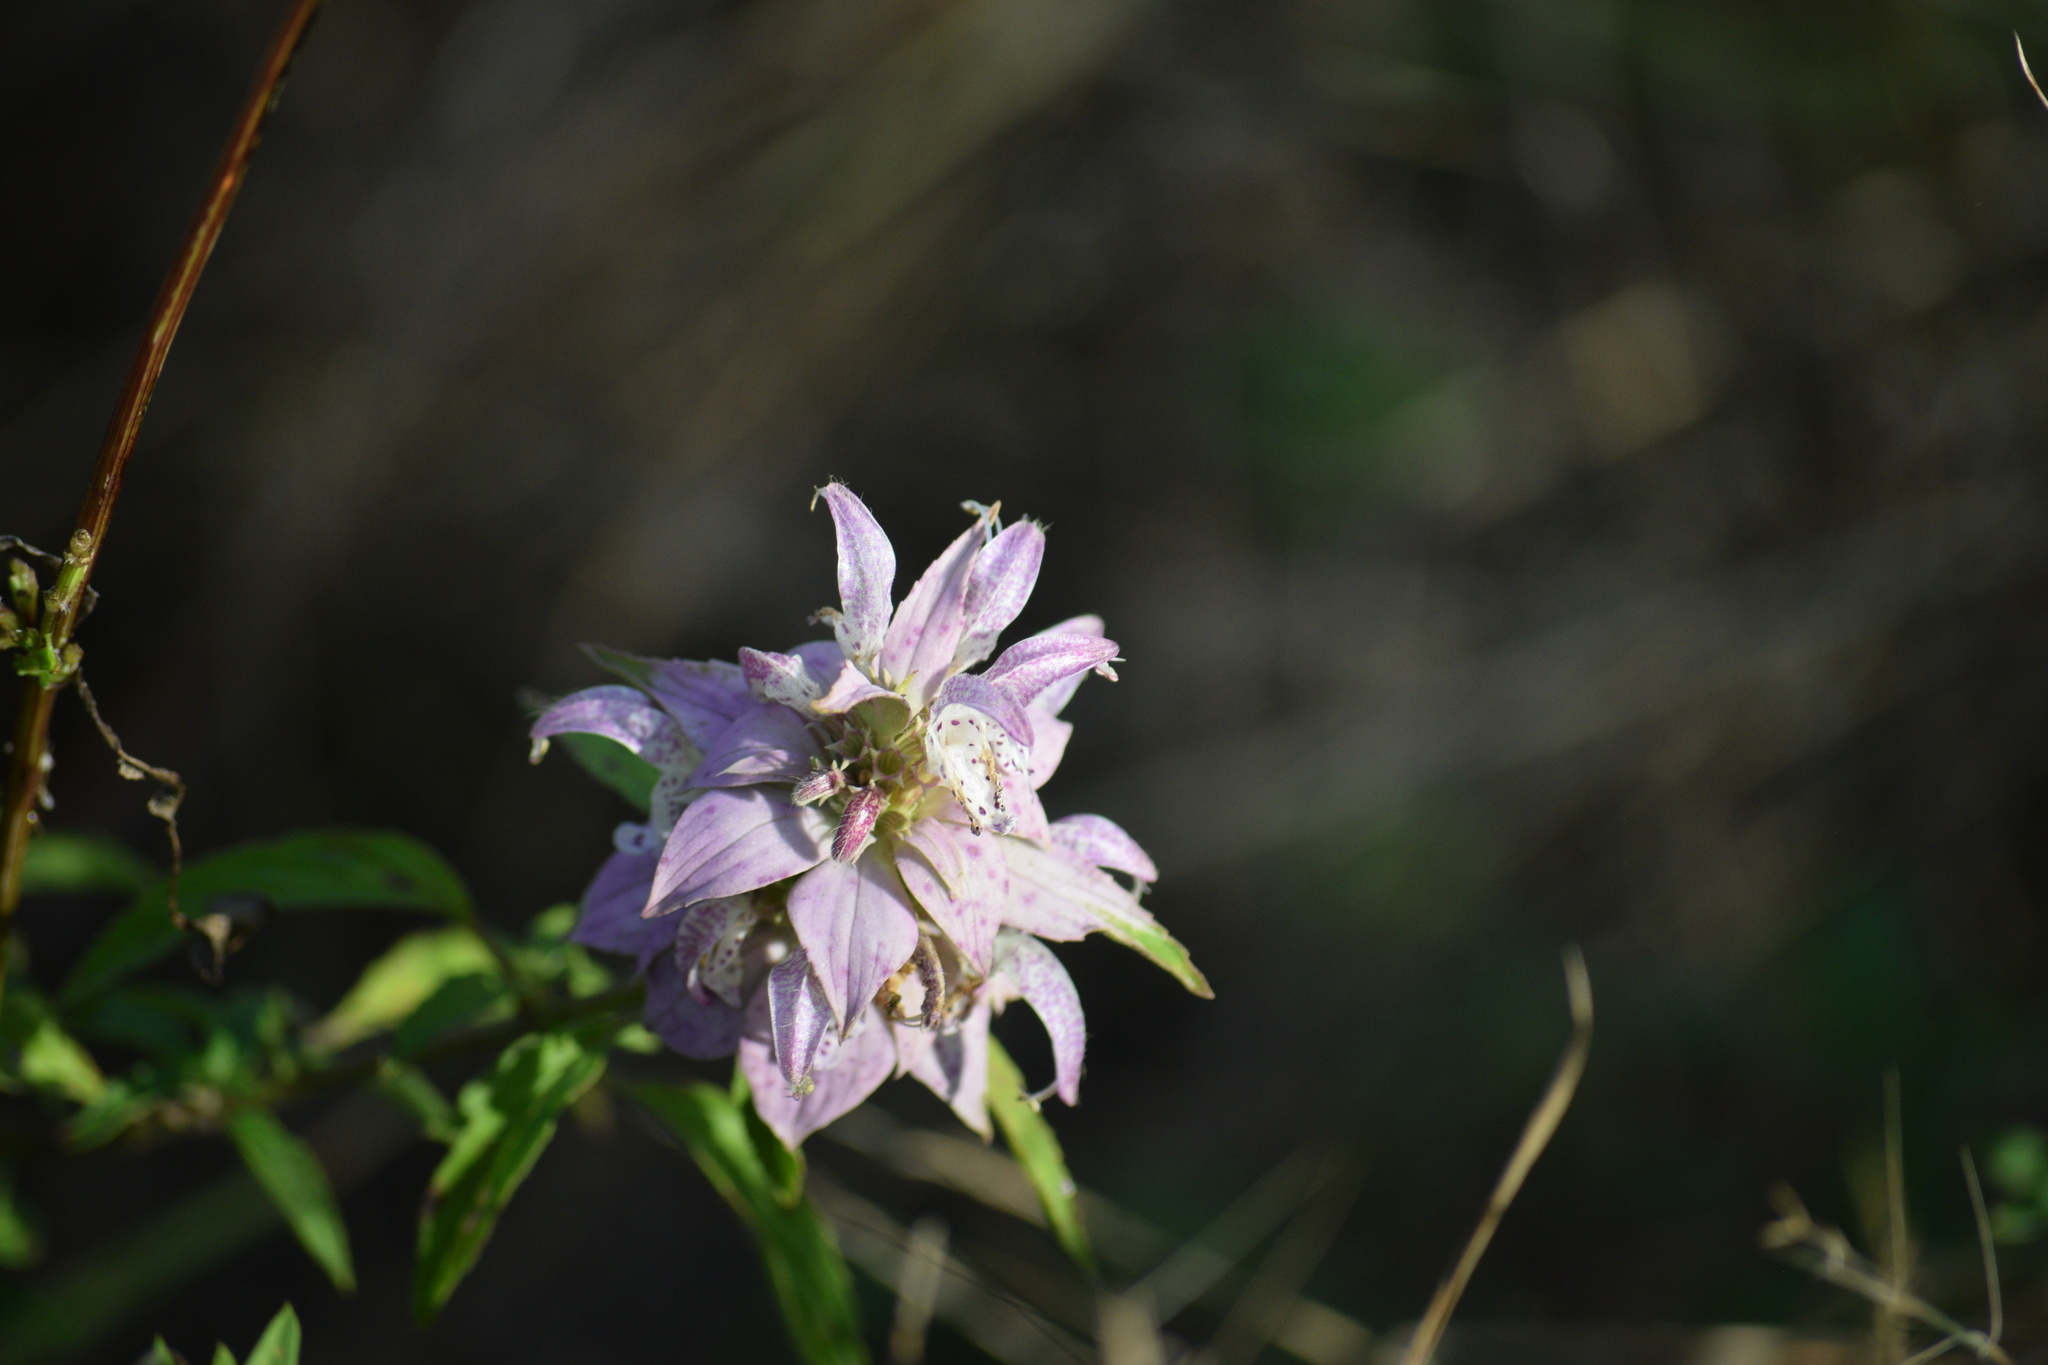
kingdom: Plantae
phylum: Tracheophyta
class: Magnoliopsida
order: Lamiales
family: Lamiaceae
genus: Monarda
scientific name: Monarda punctata
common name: Dotted monarda
